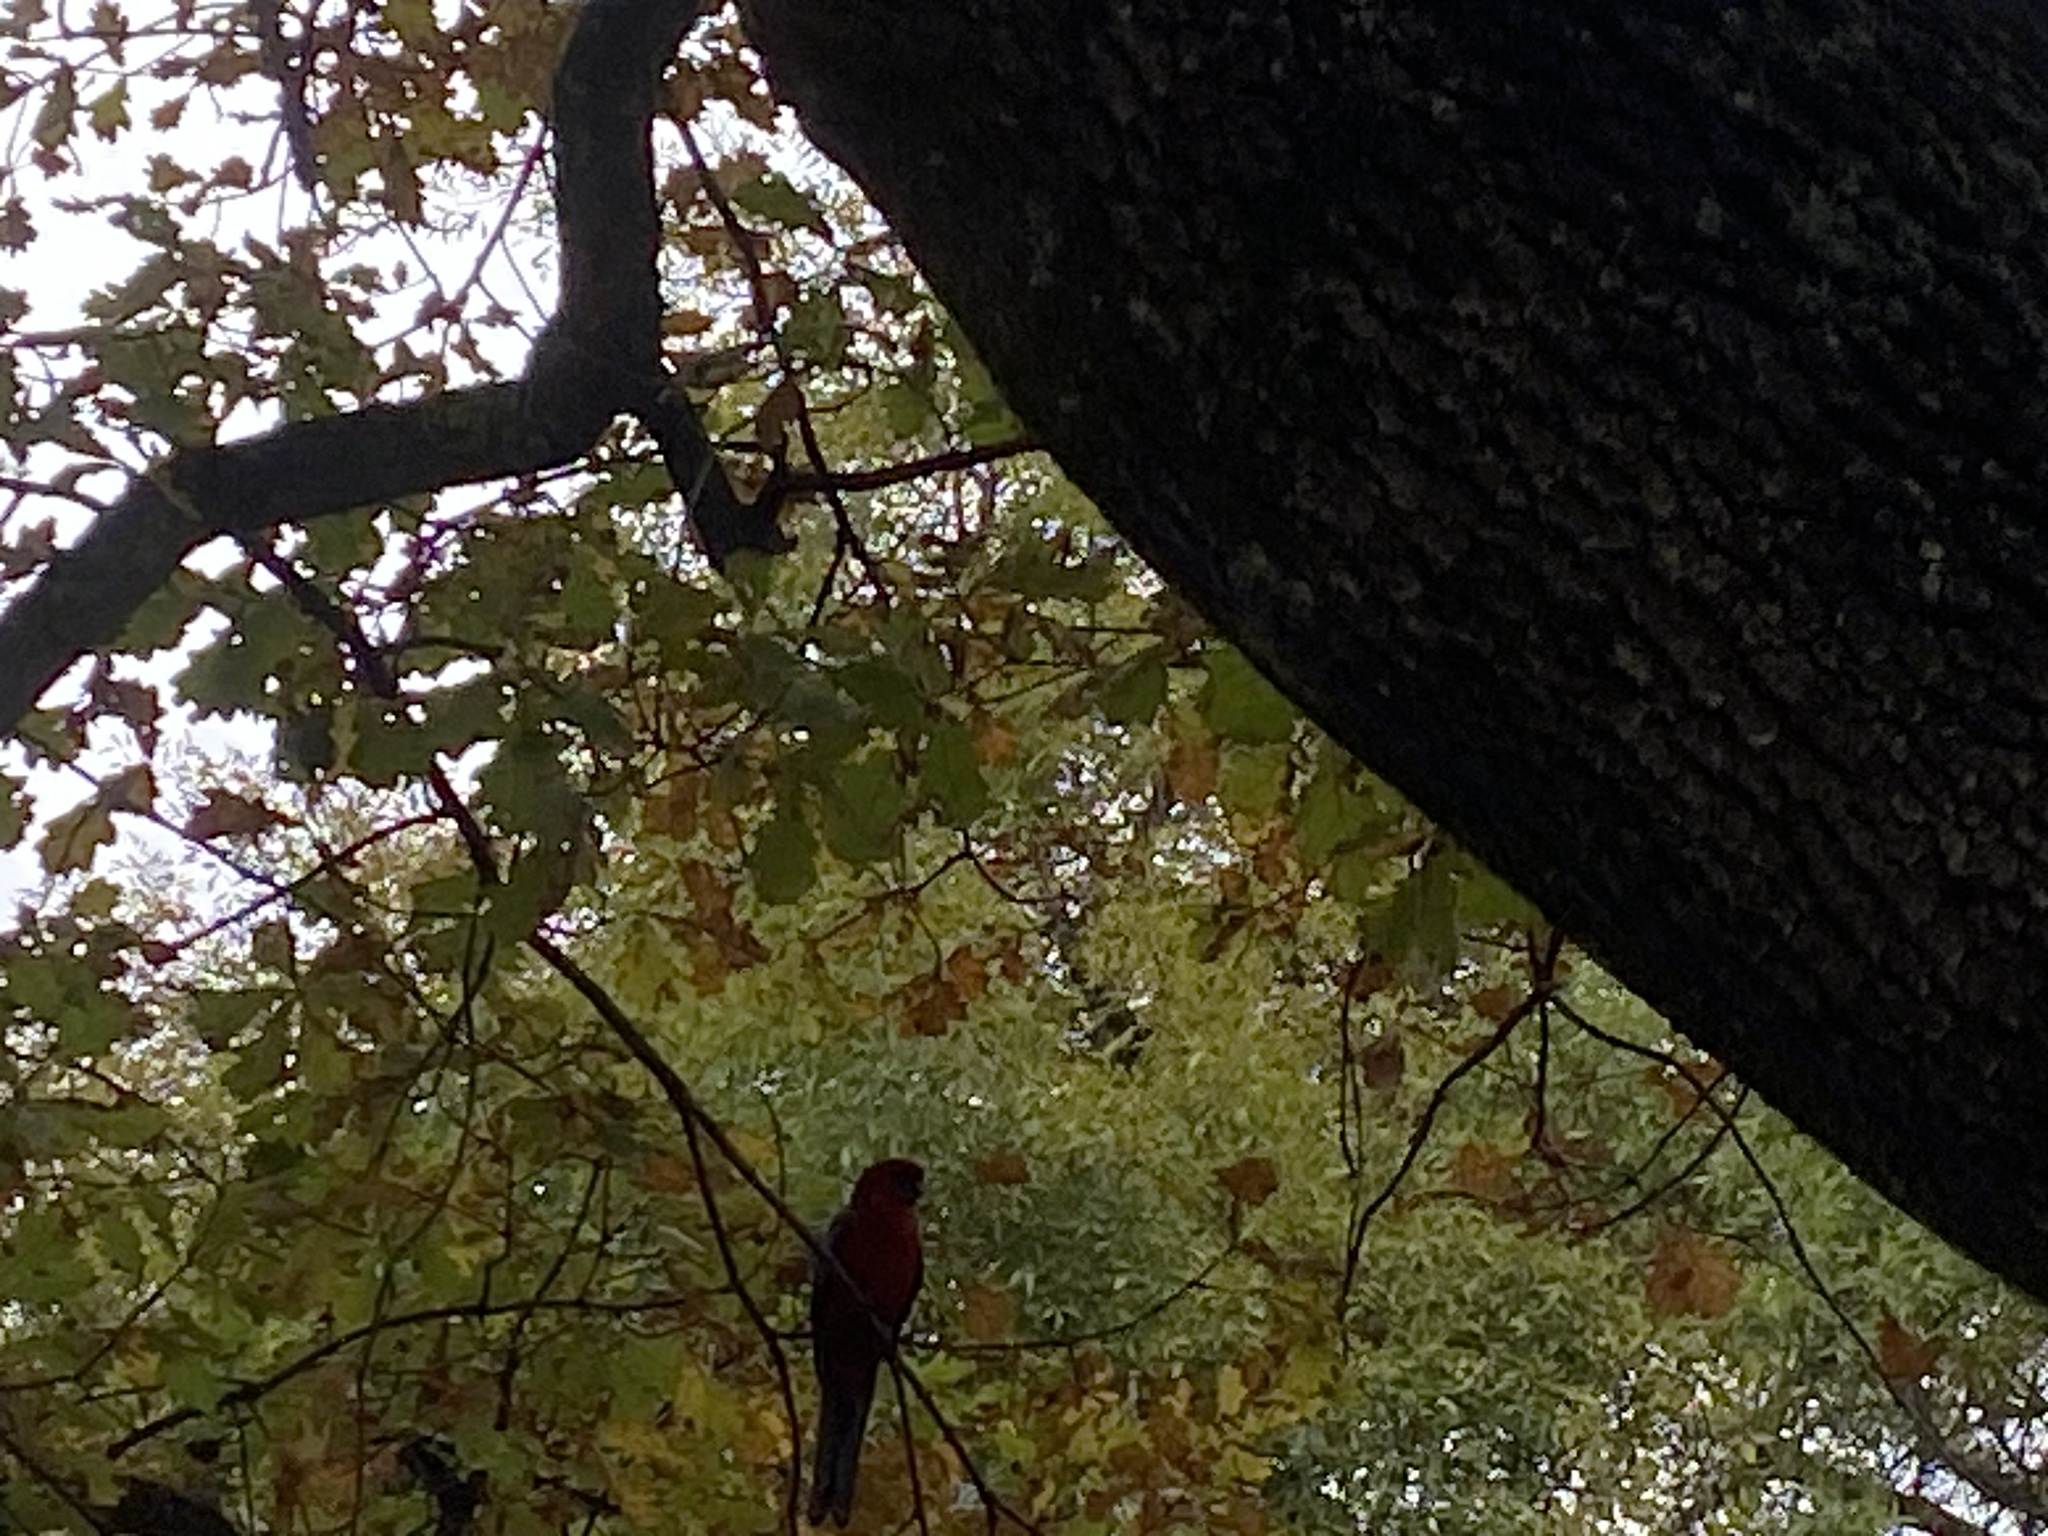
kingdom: Animalia
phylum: Chordata
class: Aves
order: Psittaciformes
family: Psittacidae
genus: Platycercus
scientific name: Platycercus elegans
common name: Crimson rosella
